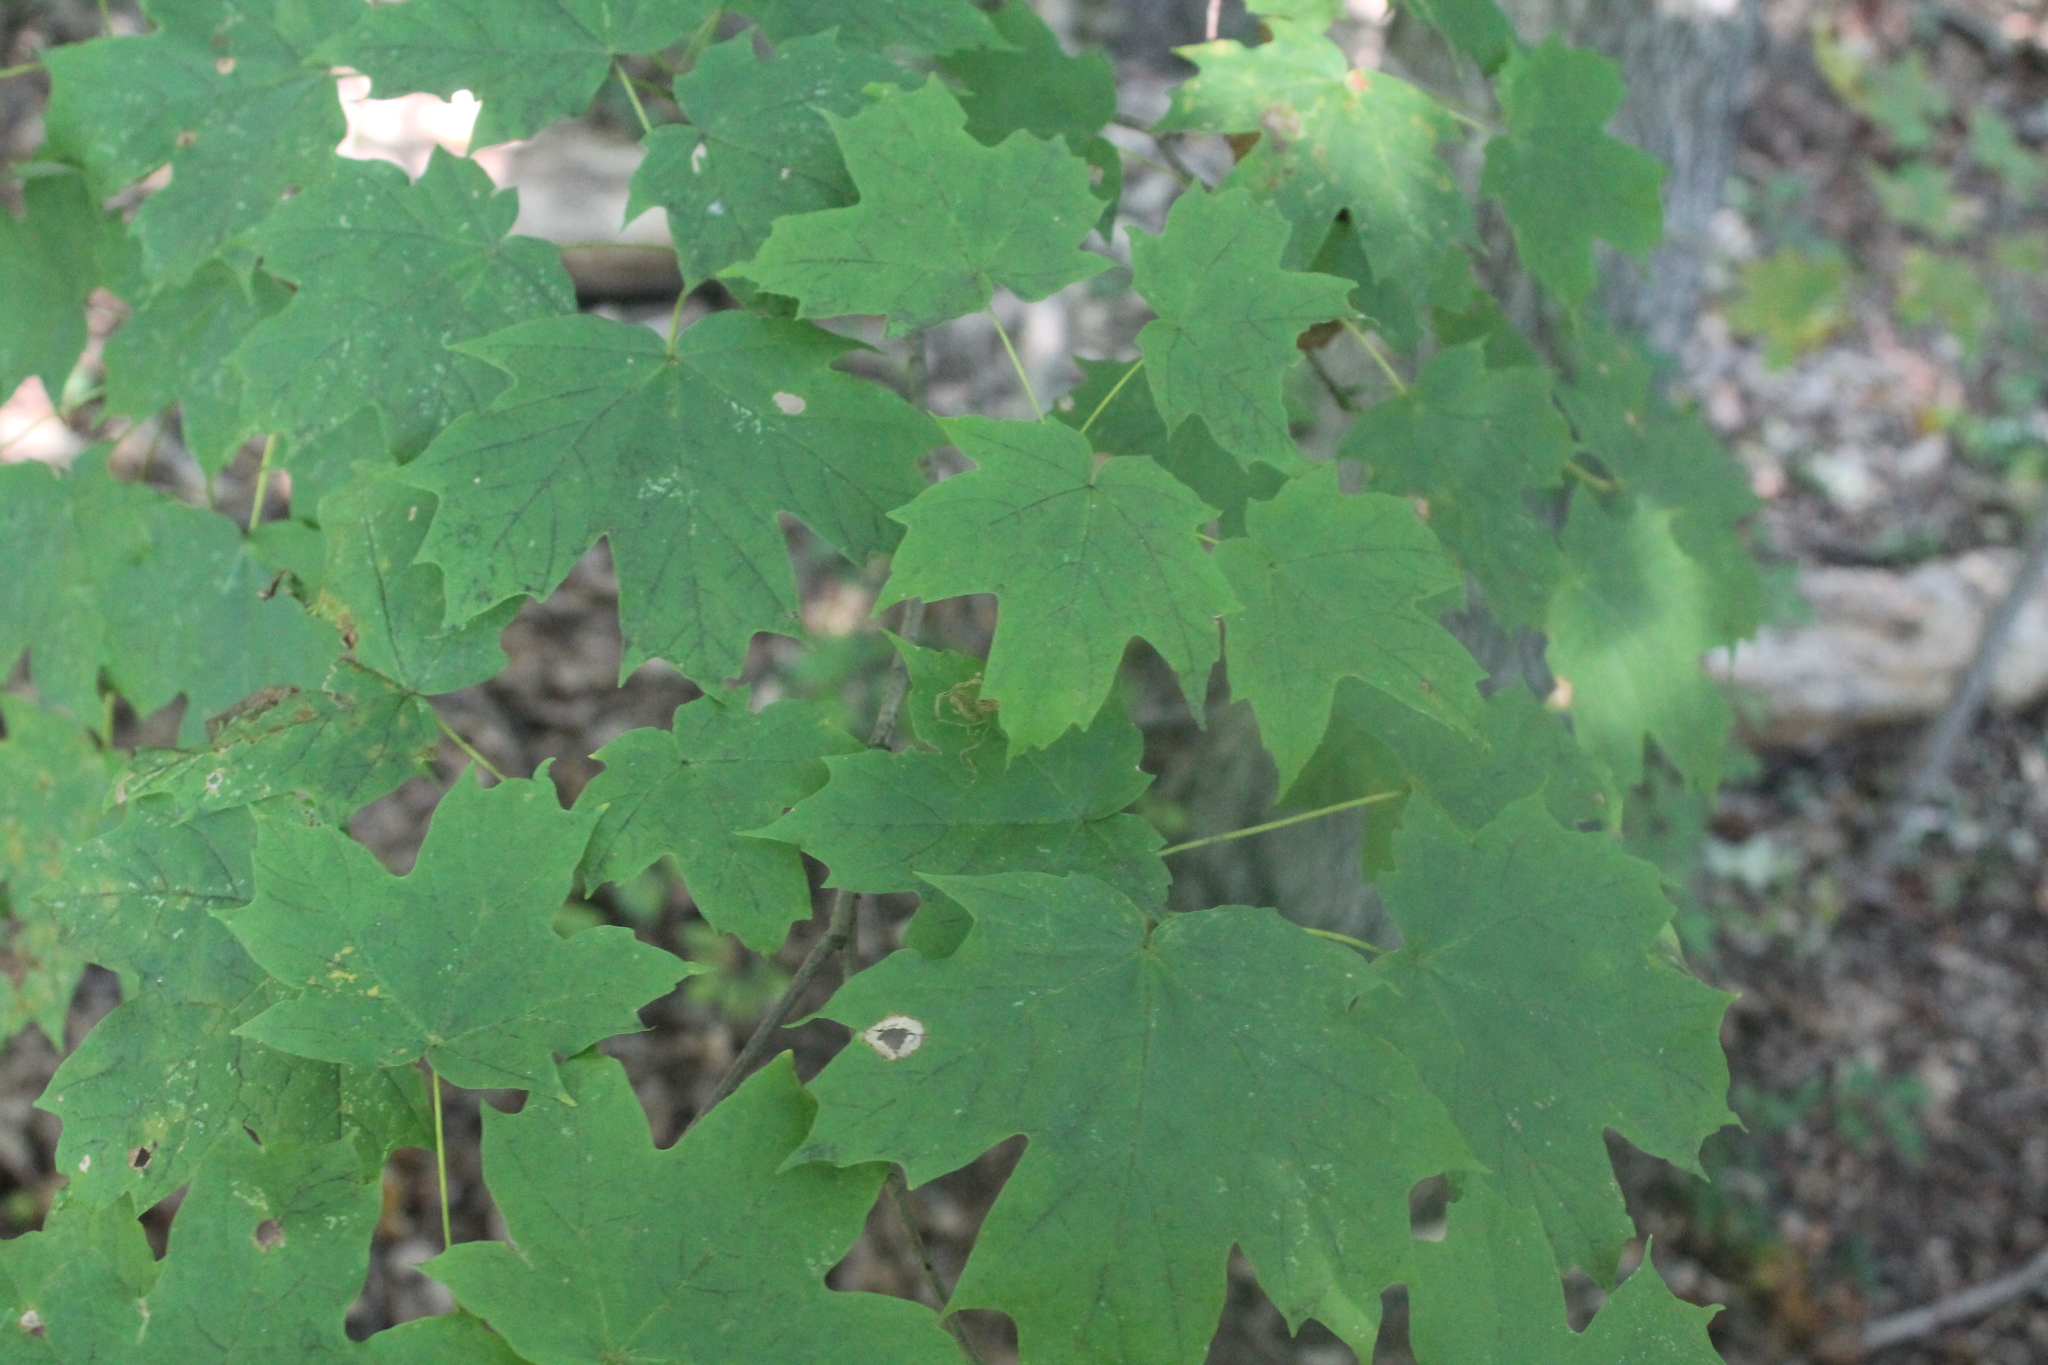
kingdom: Plantae
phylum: Tracheophyta
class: Magnoliopsida
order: Sapindales
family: Sapindaceae
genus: Acer
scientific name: Acer saccharum
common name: Sugar maple
